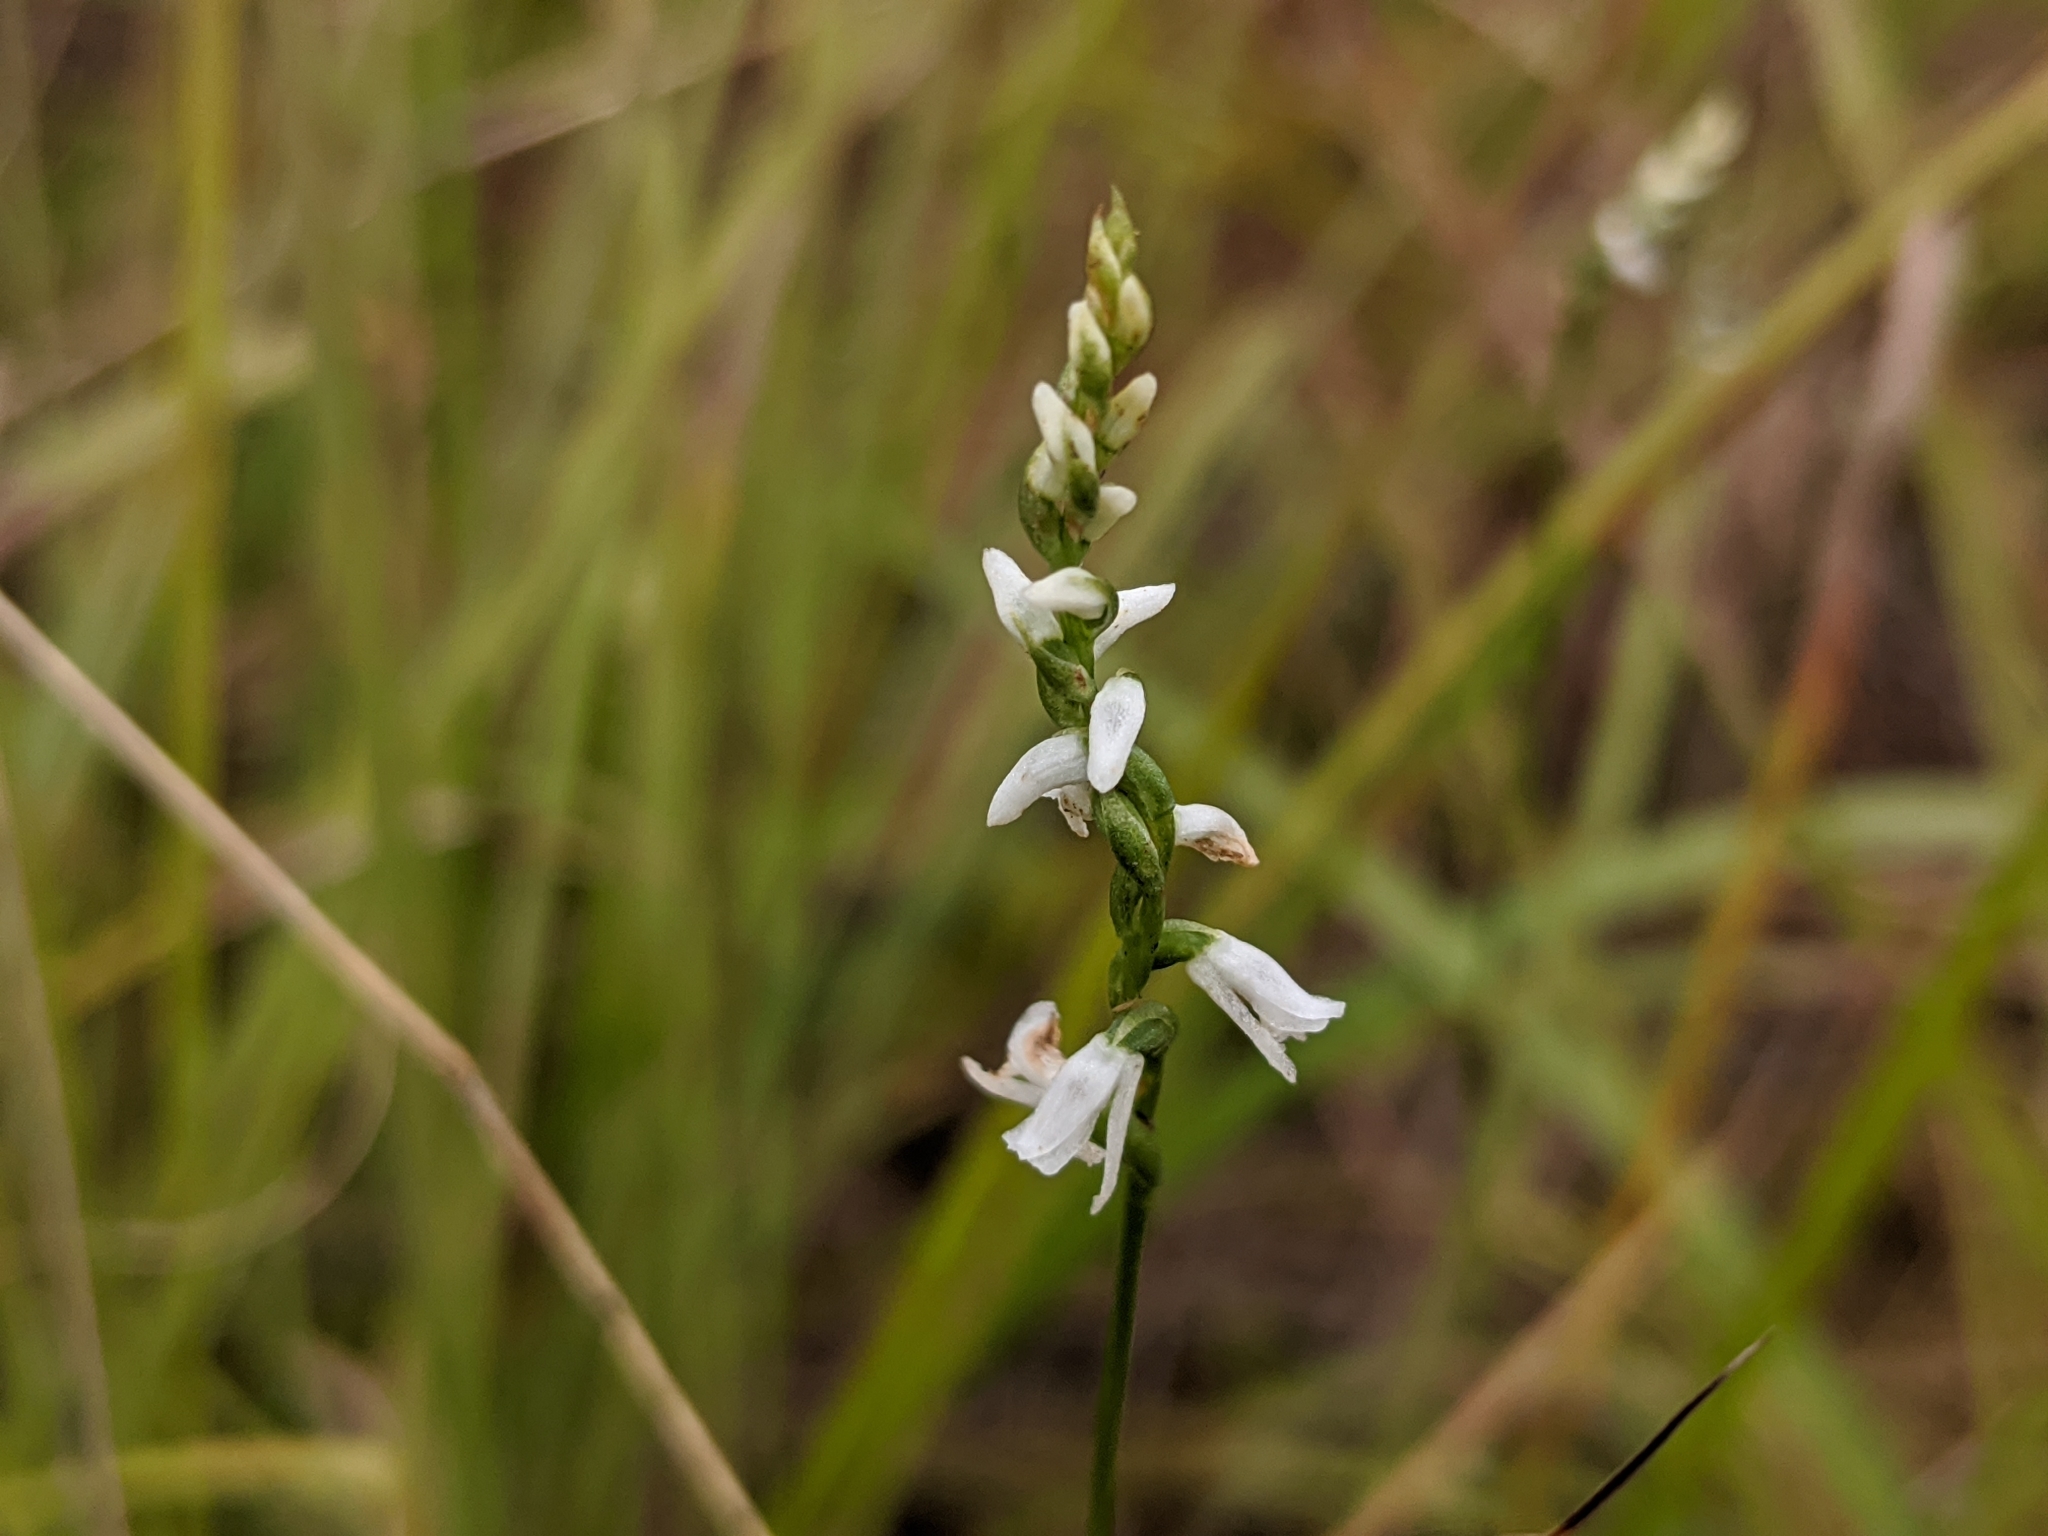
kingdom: Plantae
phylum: Tracheophyta
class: Liliopsida
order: Asparagales
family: Orchidaceae
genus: Spiranthes
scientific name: Spiranthes tuberosa
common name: Little ladies'-tresses
